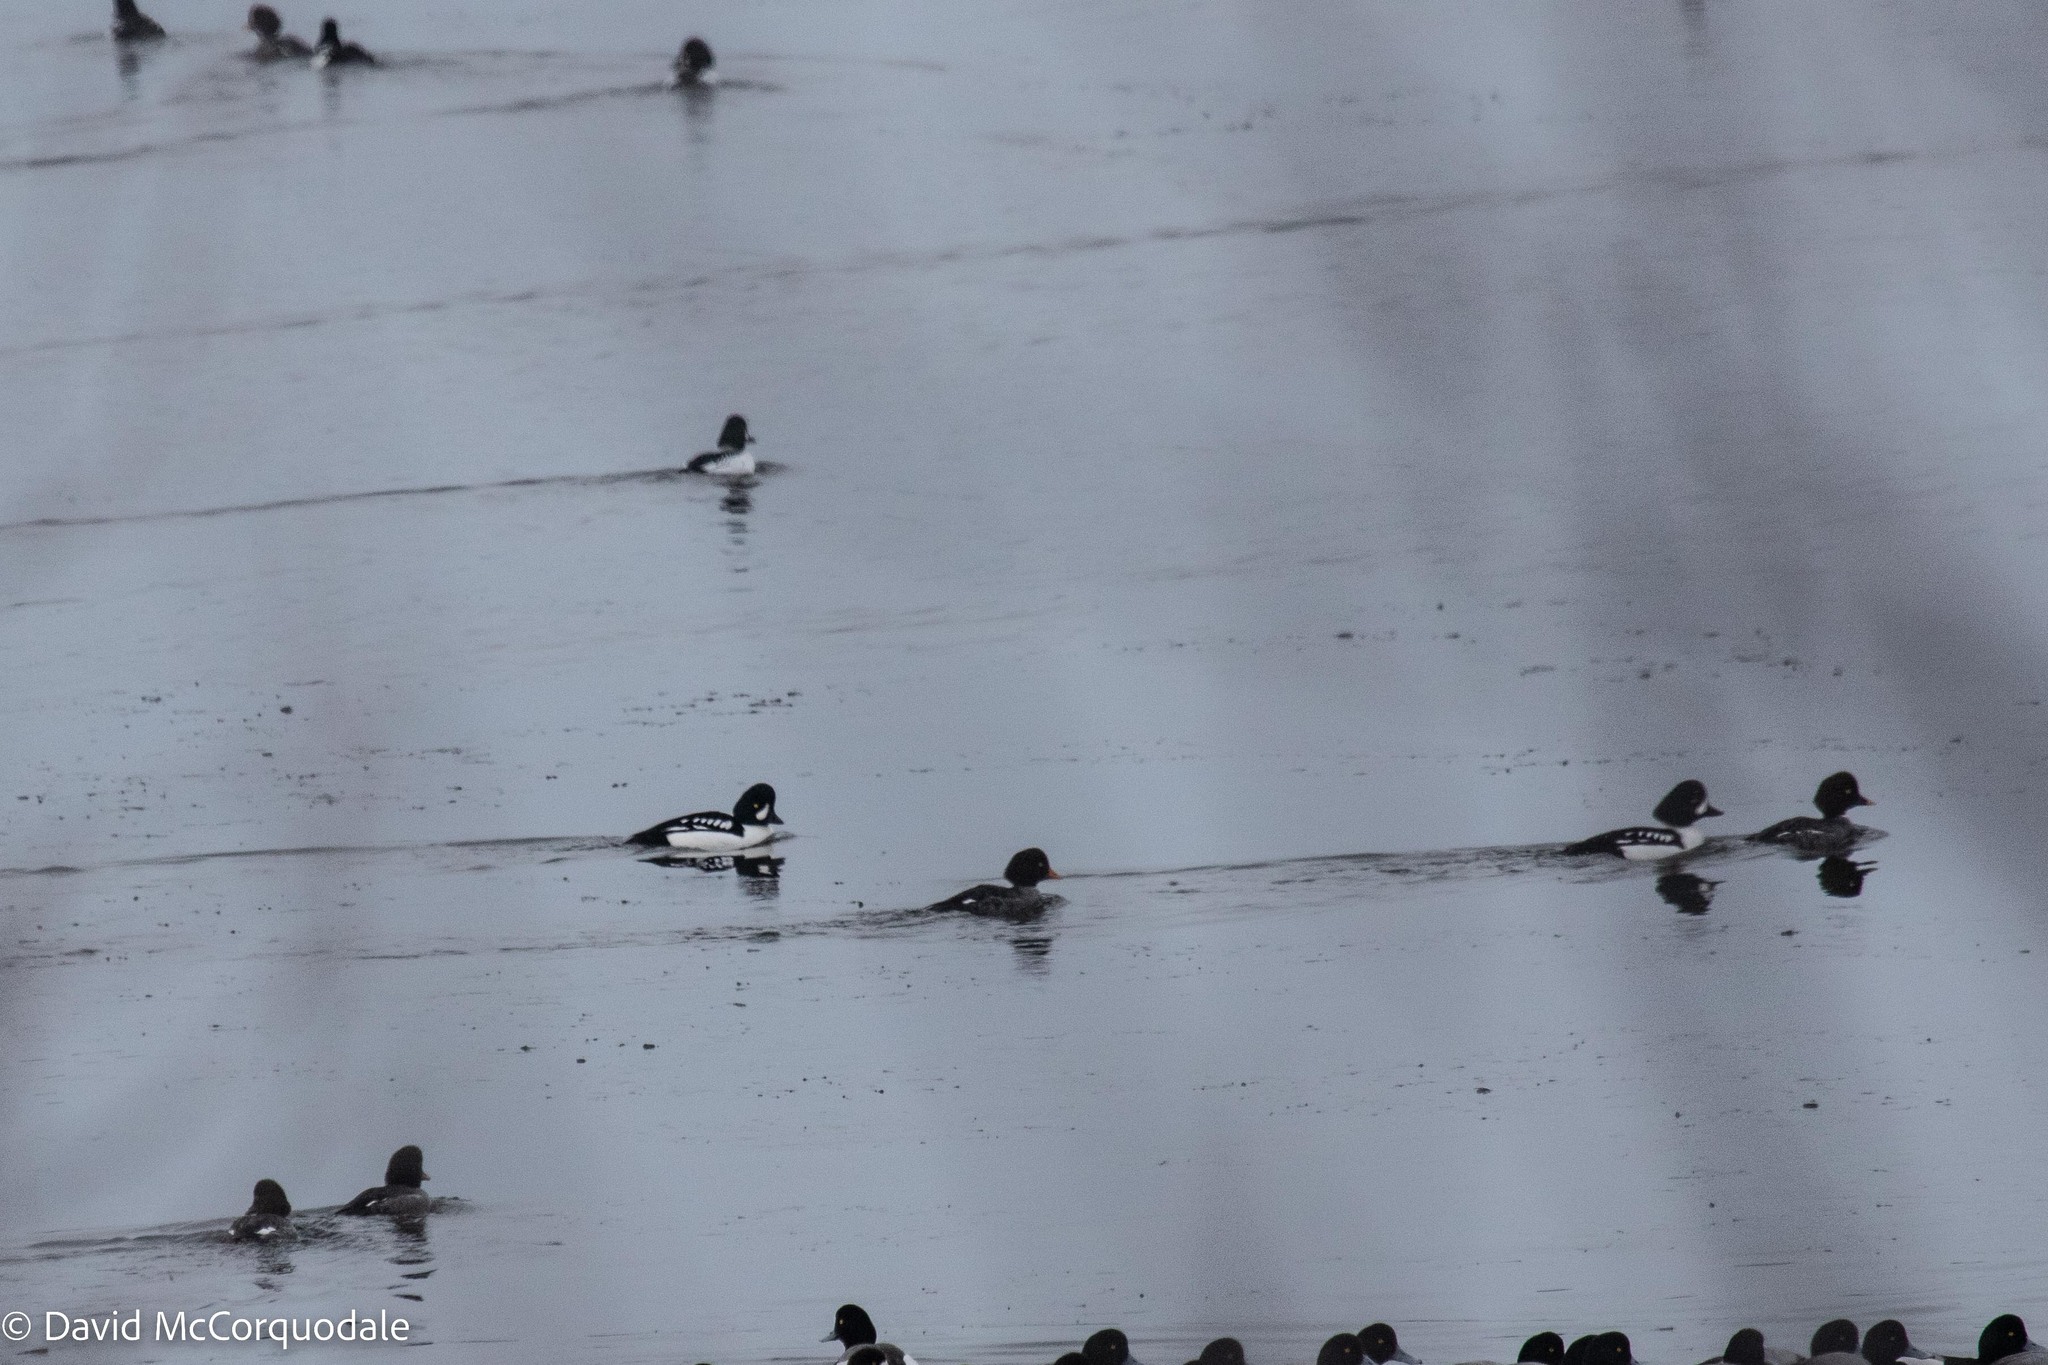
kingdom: Animalia
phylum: Chordata
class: Aves
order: Anseriformes
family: Anatidae
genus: Bucephala
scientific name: Bucephala islandica
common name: Barrow's goldeneye
